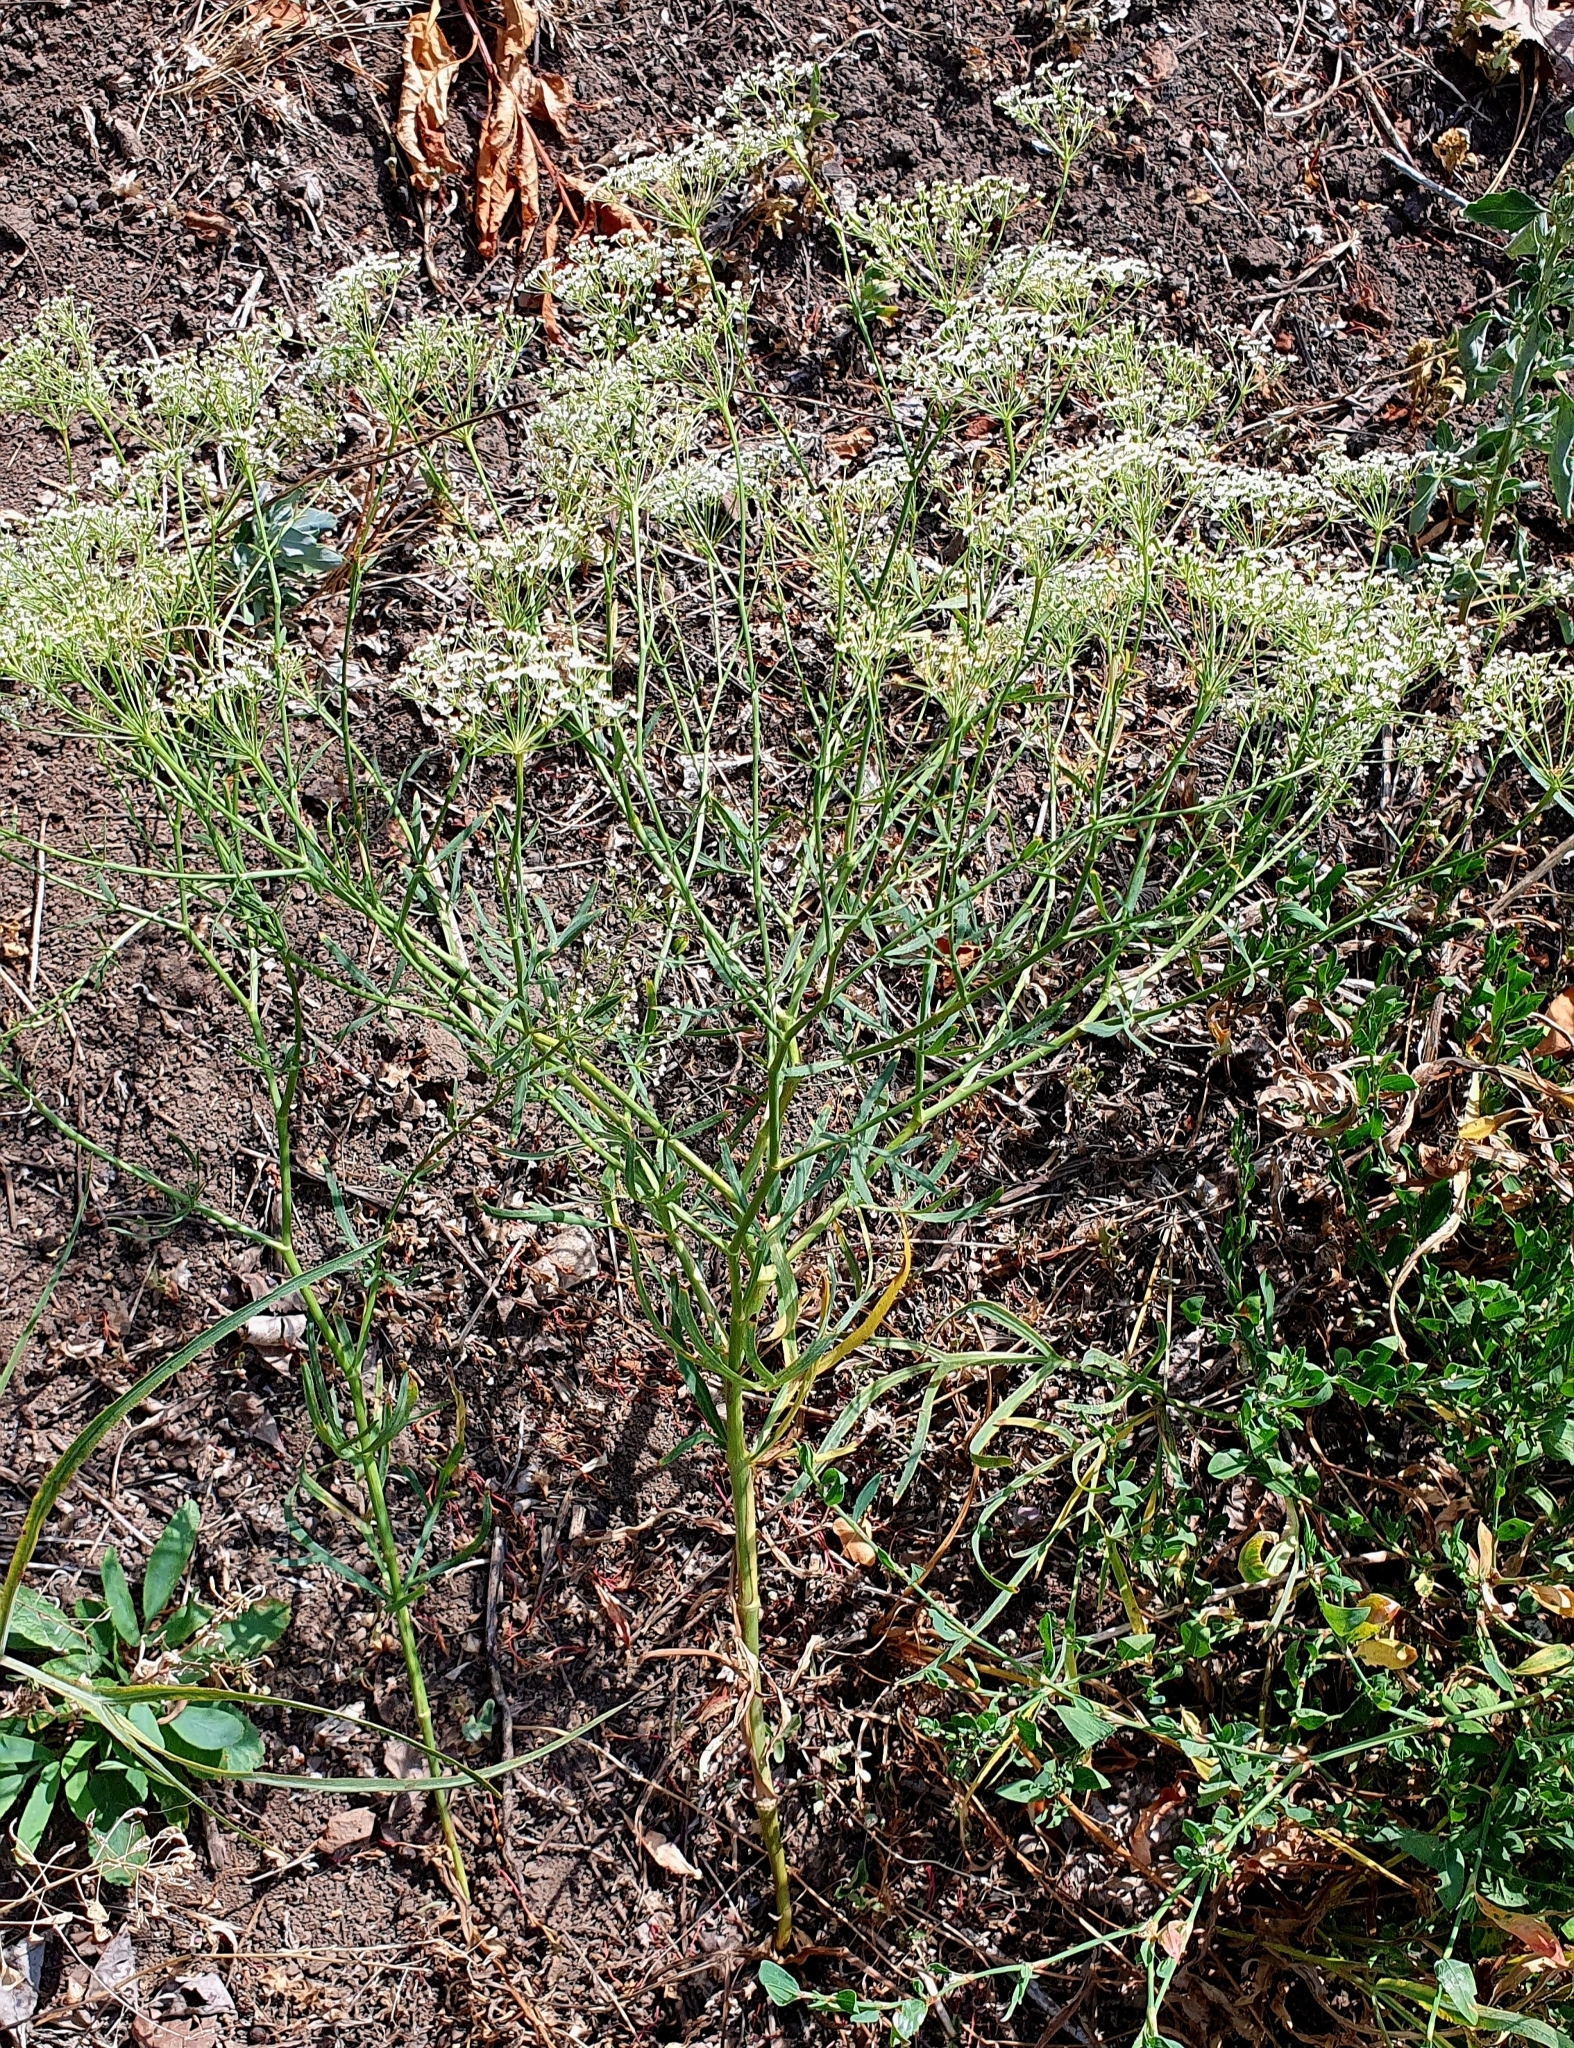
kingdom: Plantae
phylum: Tracheophyta
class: Magnoliopsida
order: Apiales
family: Apiaceae
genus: Falcaria
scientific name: Falcaria vulgaris
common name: Longleaf
